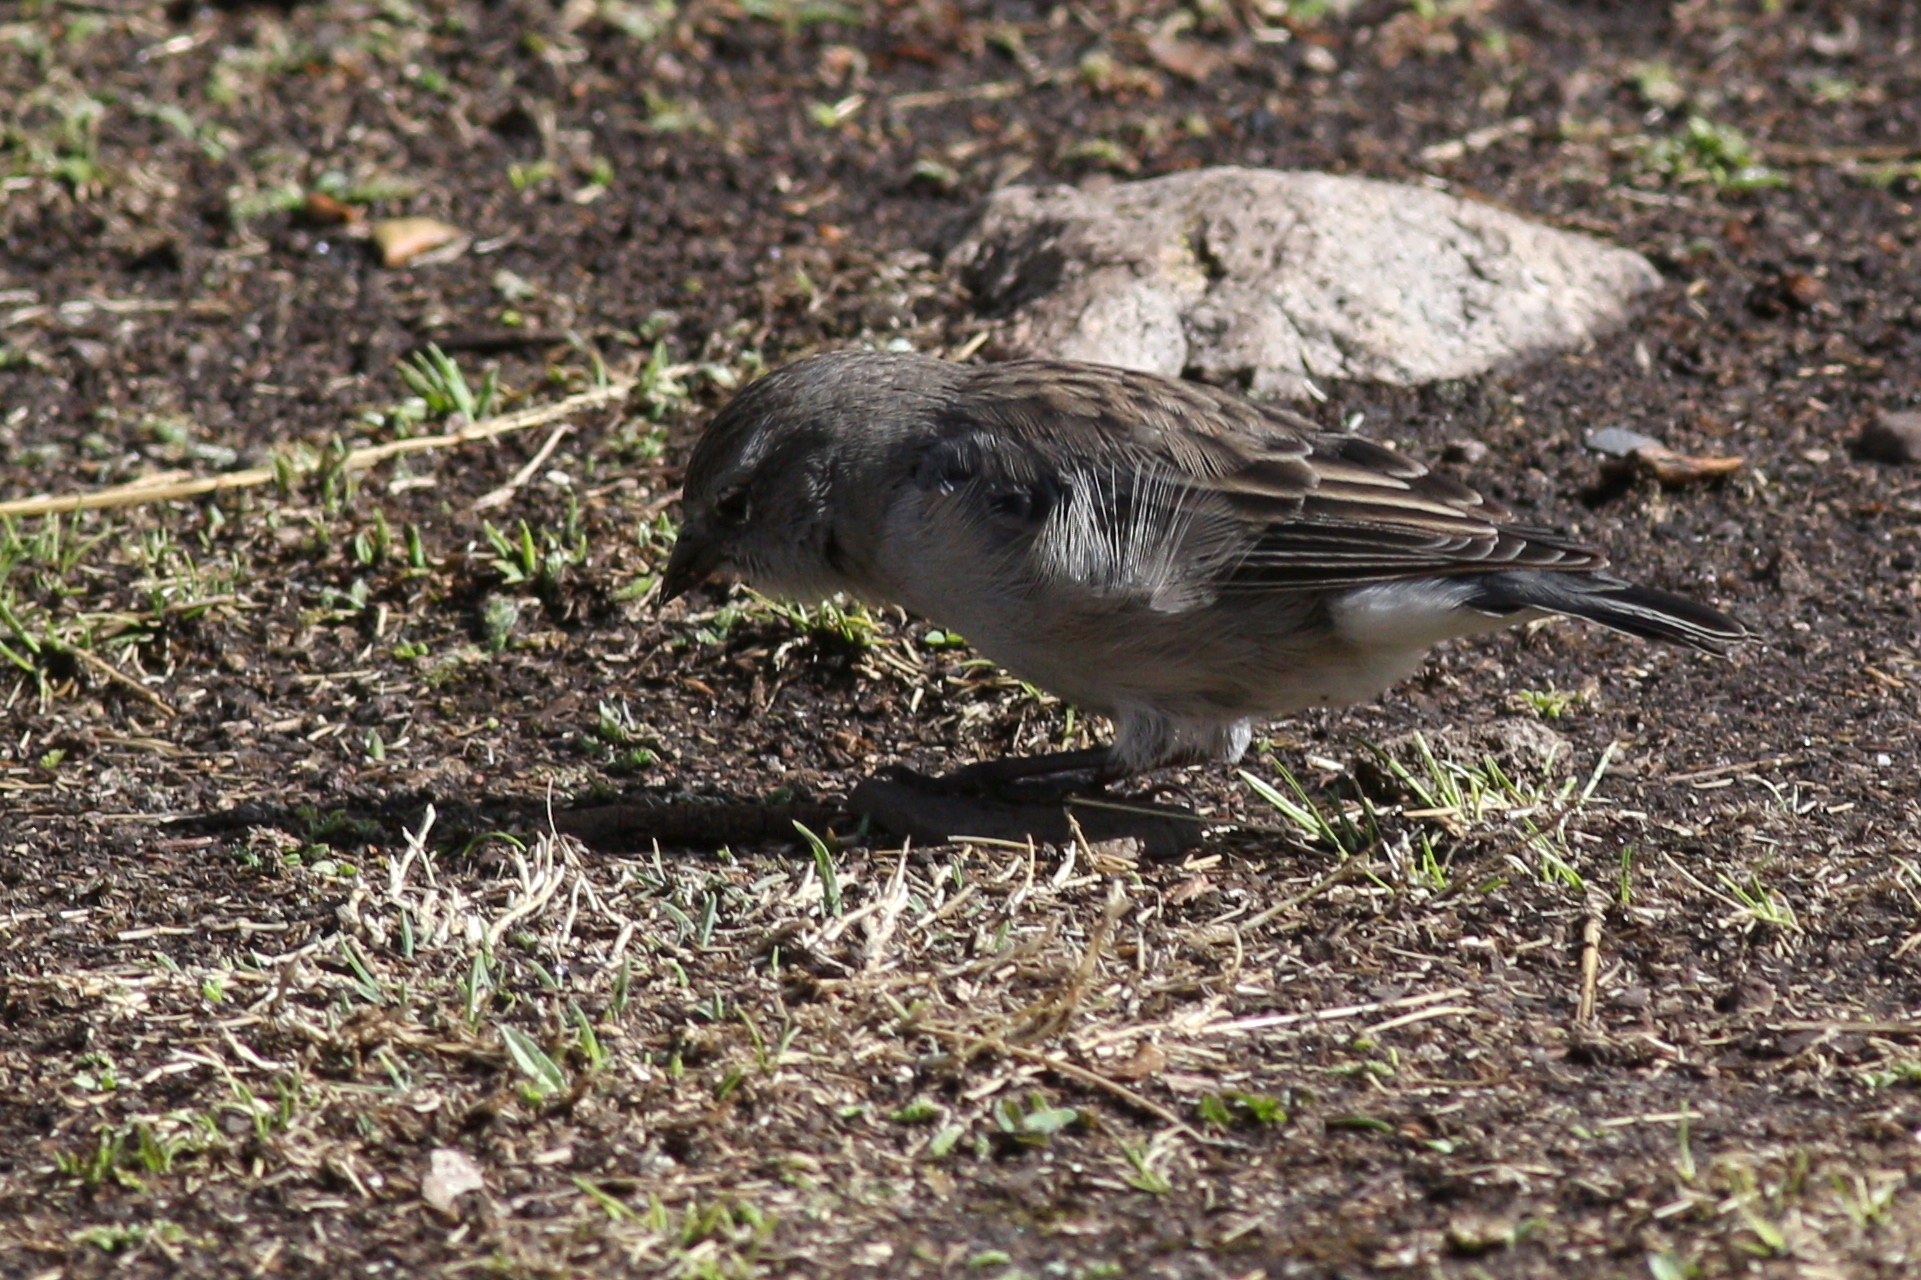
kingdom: Animalia
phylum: Chordata
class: Aves
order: Passeriformes
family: Thraupidae
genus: Geospizopsis
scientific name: Geospizopsis plebejus
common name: Ash-breasted sierra-finch
